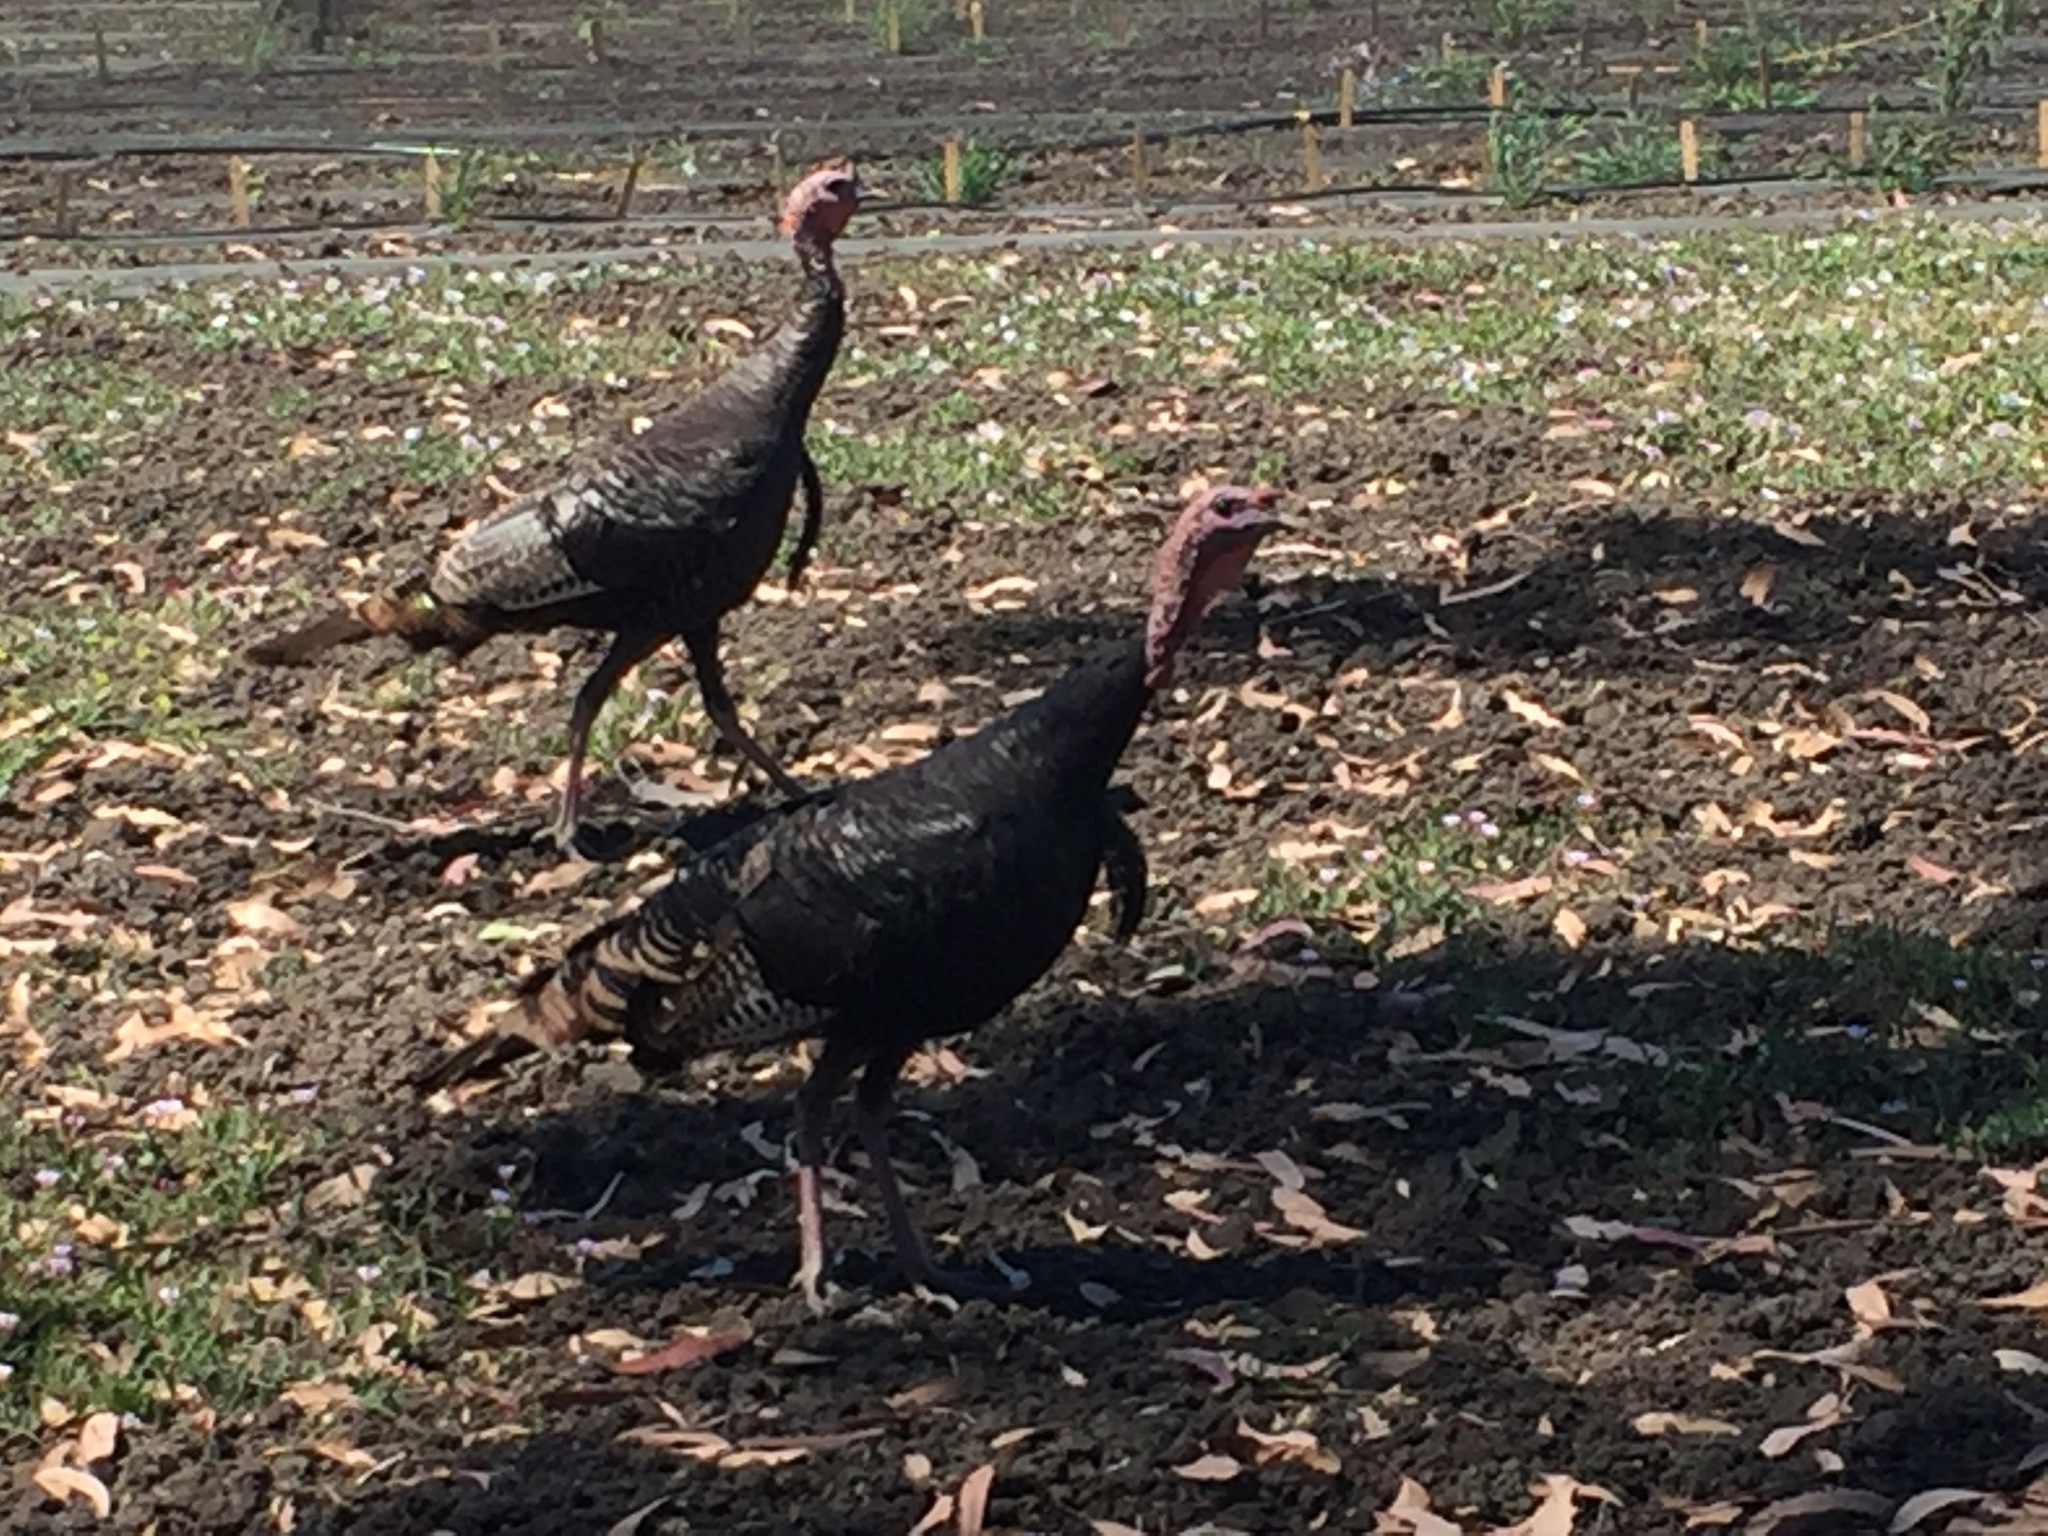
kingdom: Animalia
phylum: Chordata
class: Aves
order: Galliformes
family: Phasianidae
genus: Meleagris
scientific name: Meleagris gallopavo
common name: Wild turkey
